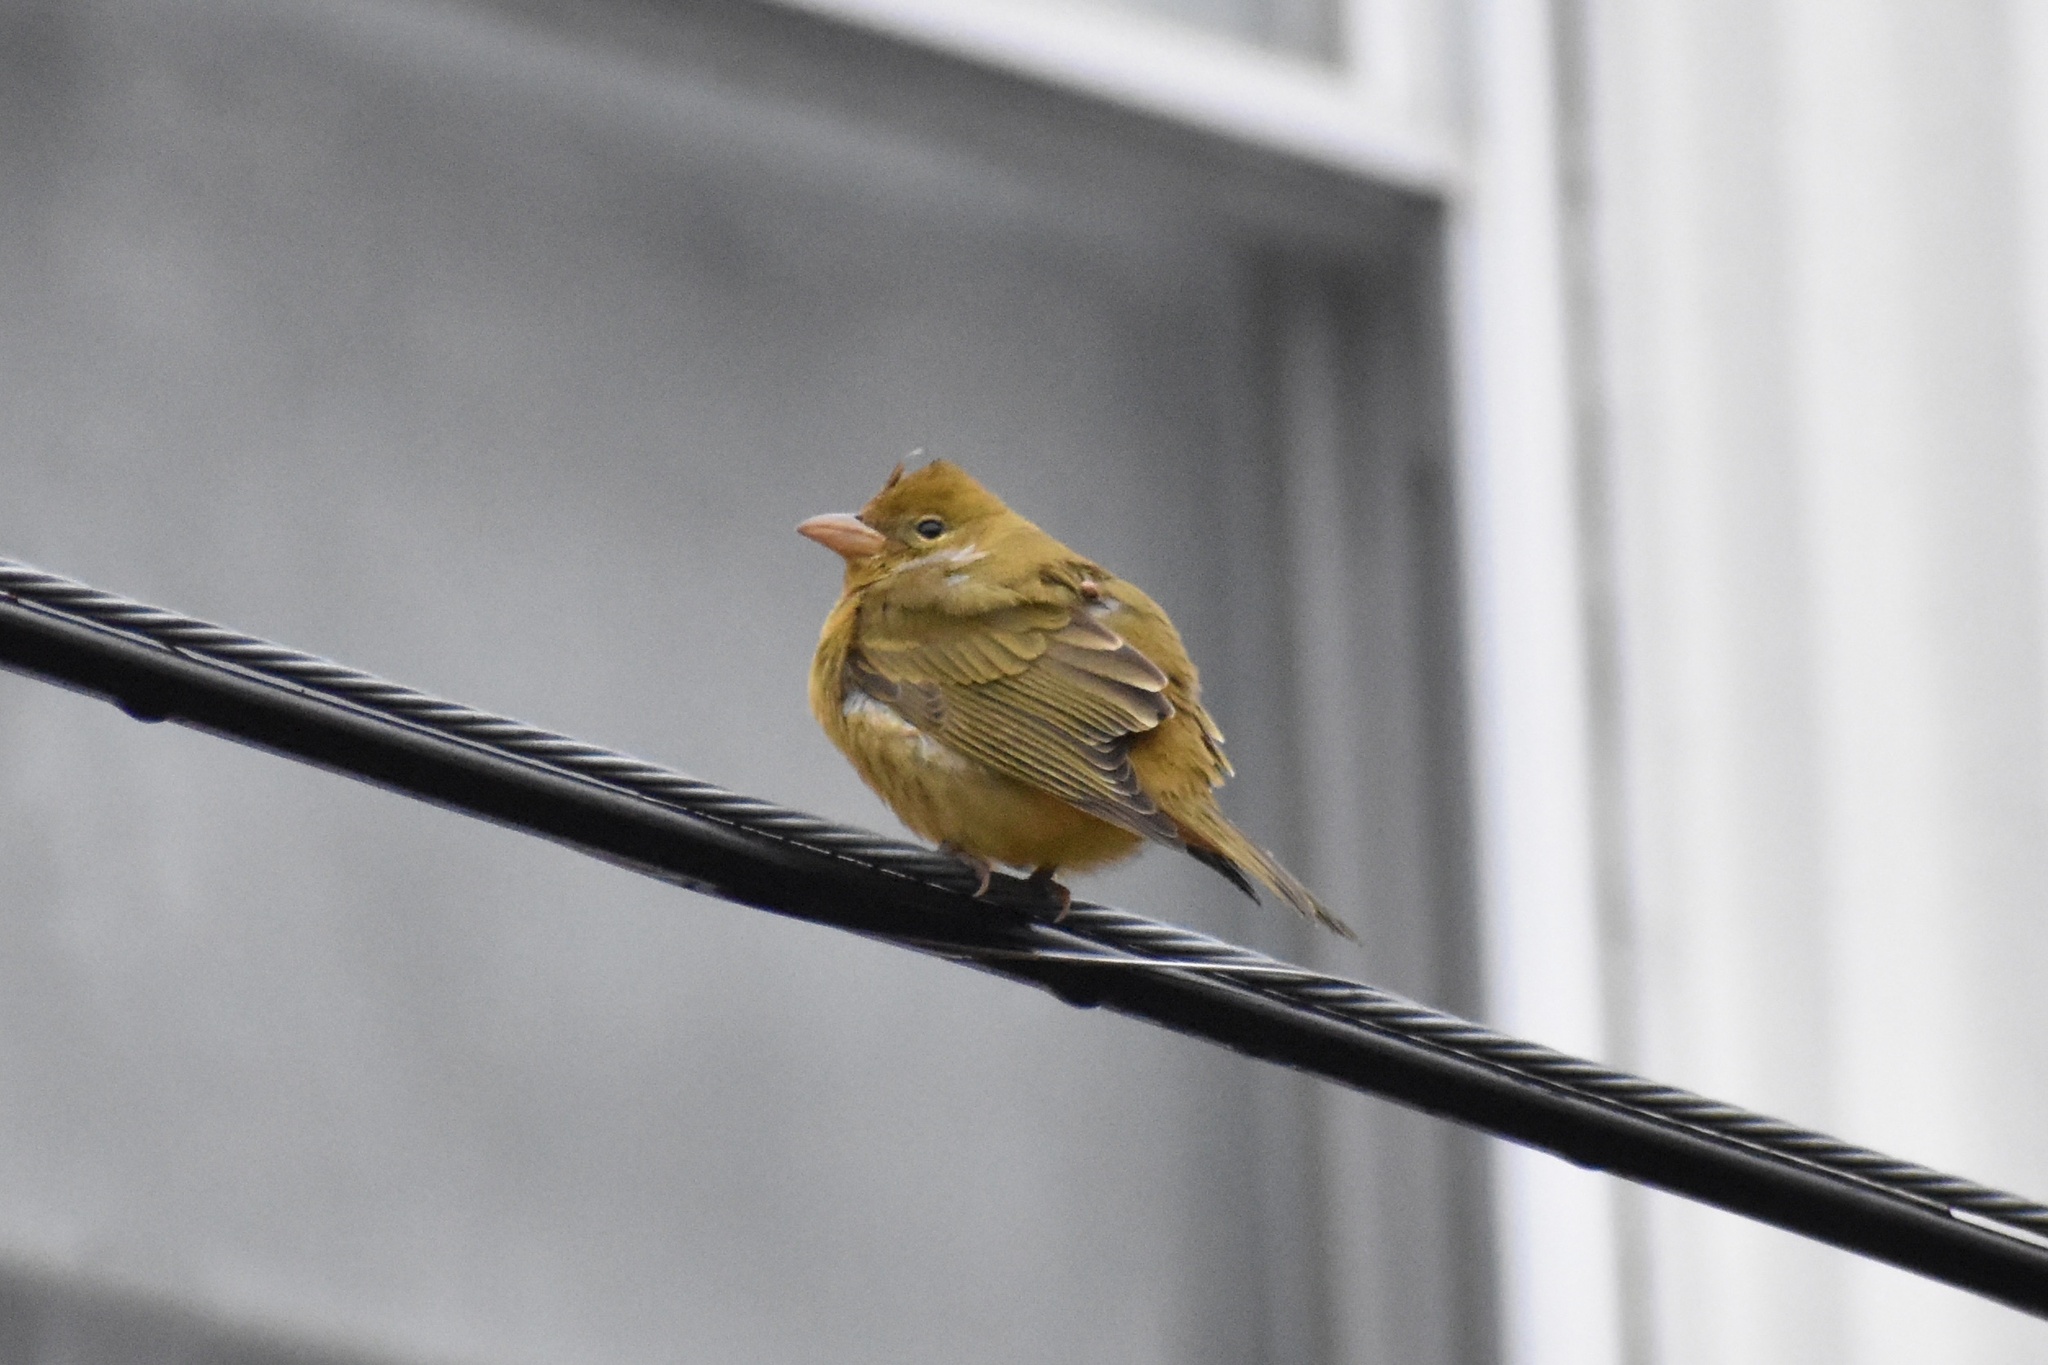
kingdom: Animalia
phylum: Chordata
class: Aves
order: Passeriformes
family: Cardinalidae
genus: Piranga
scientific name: Piranga rubra
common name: Summer tanager
